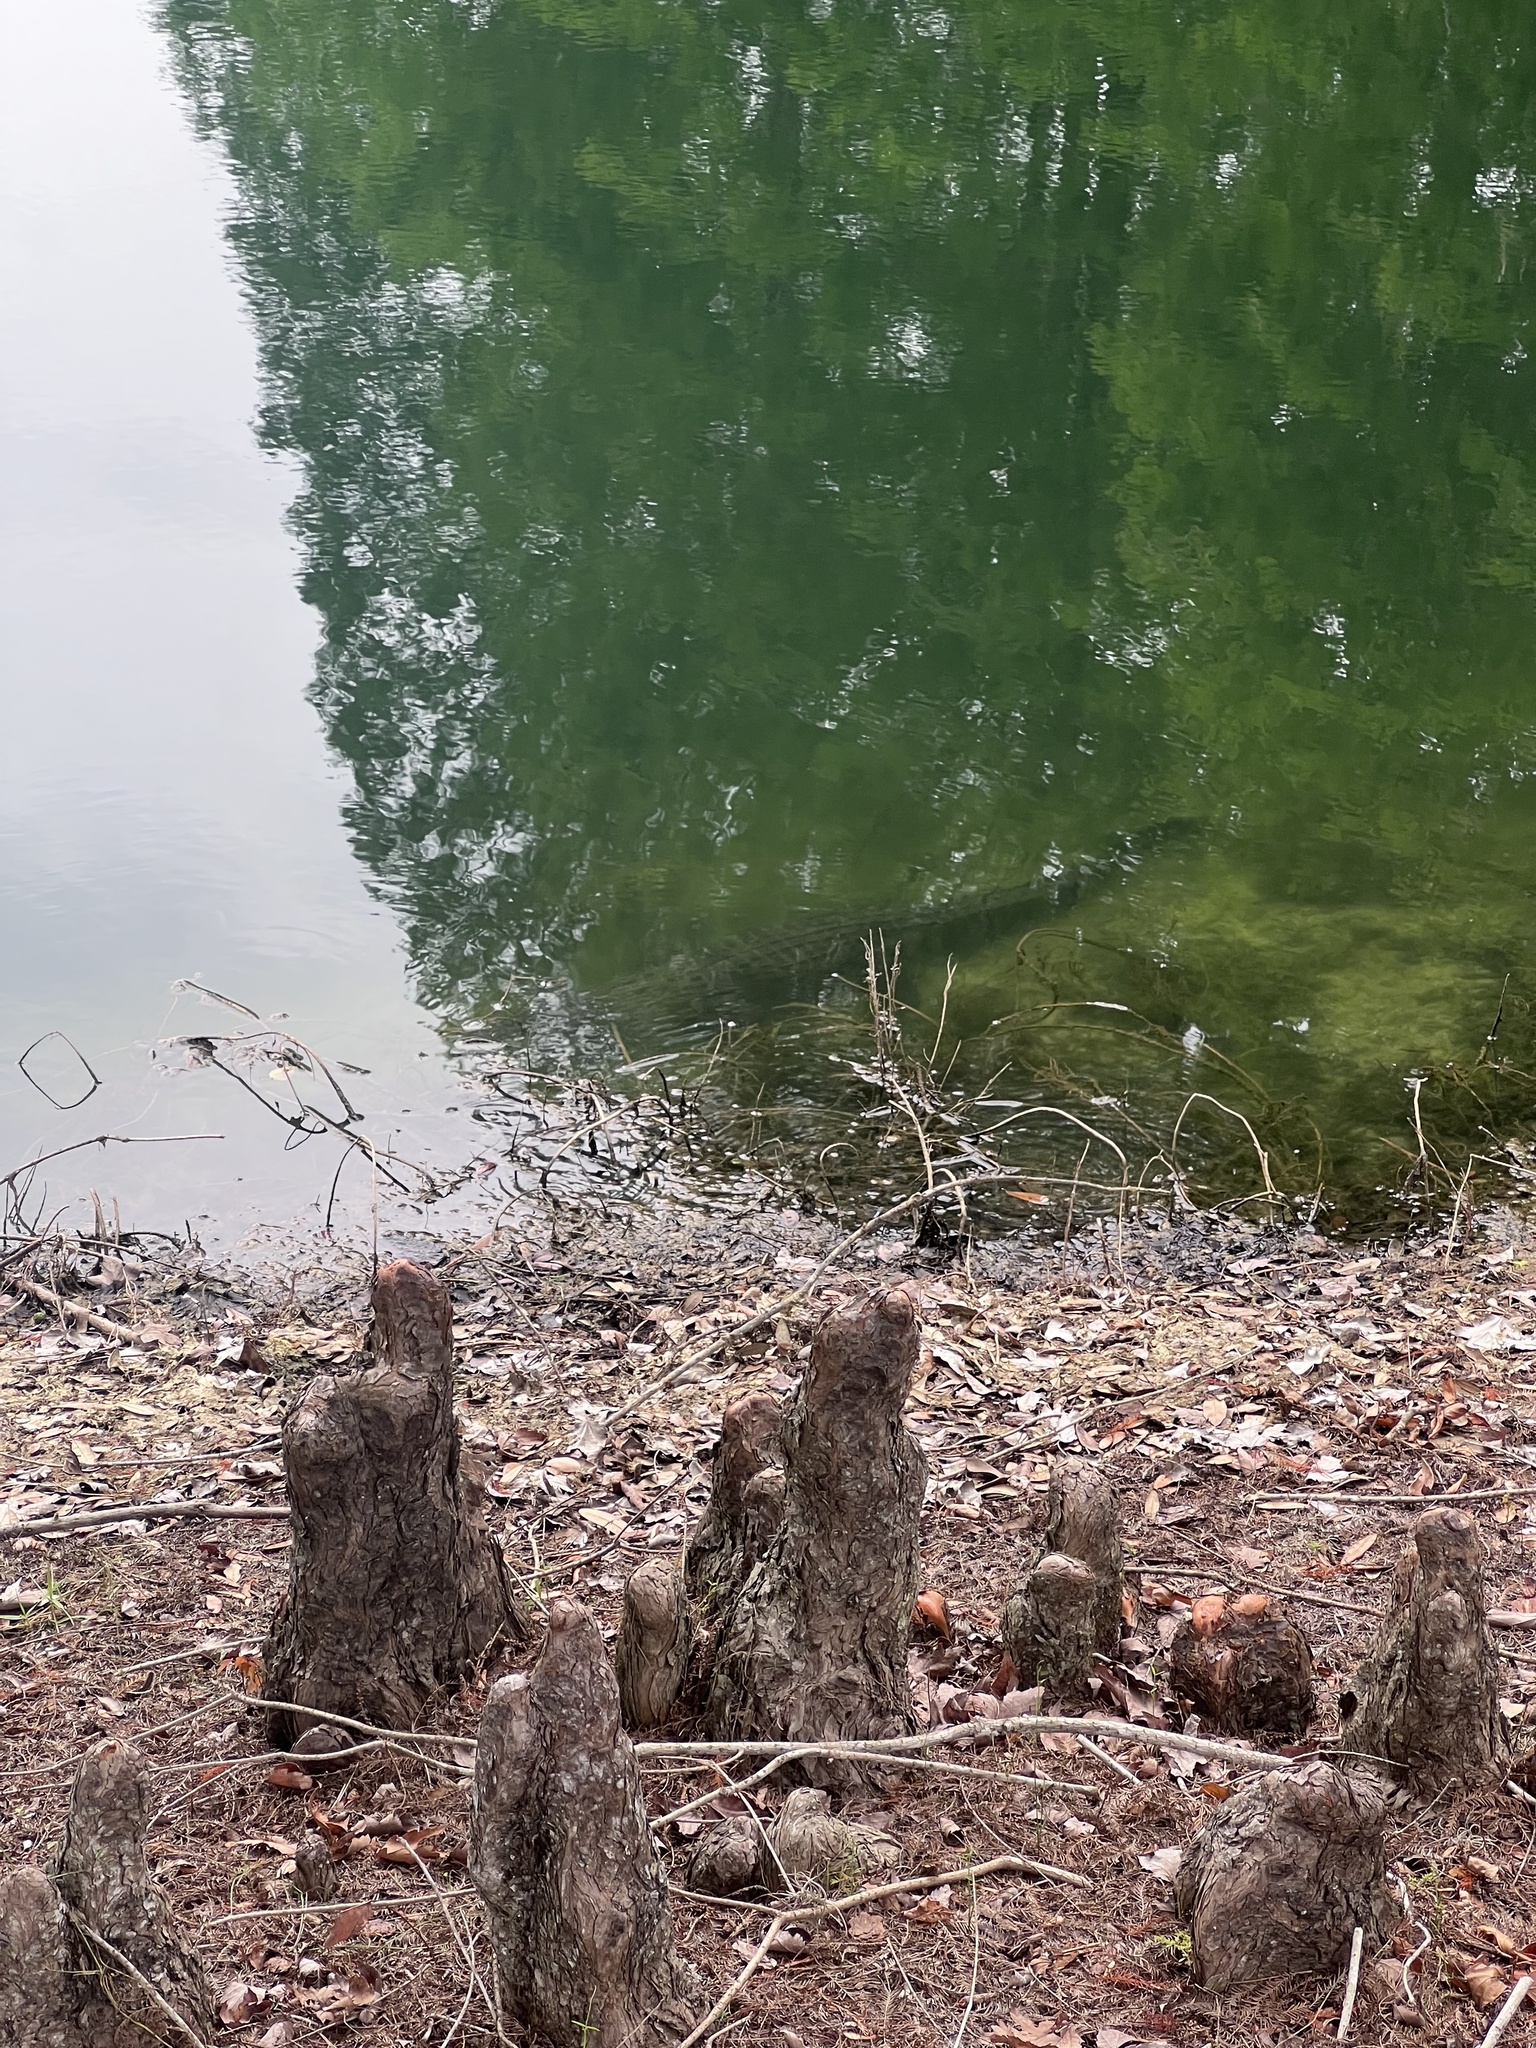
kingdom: Animalia
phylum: Chordata
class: Crocodylia
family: Alligatoridae
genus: Alligator
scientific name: Alligator mississippiensis
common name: American alligator
